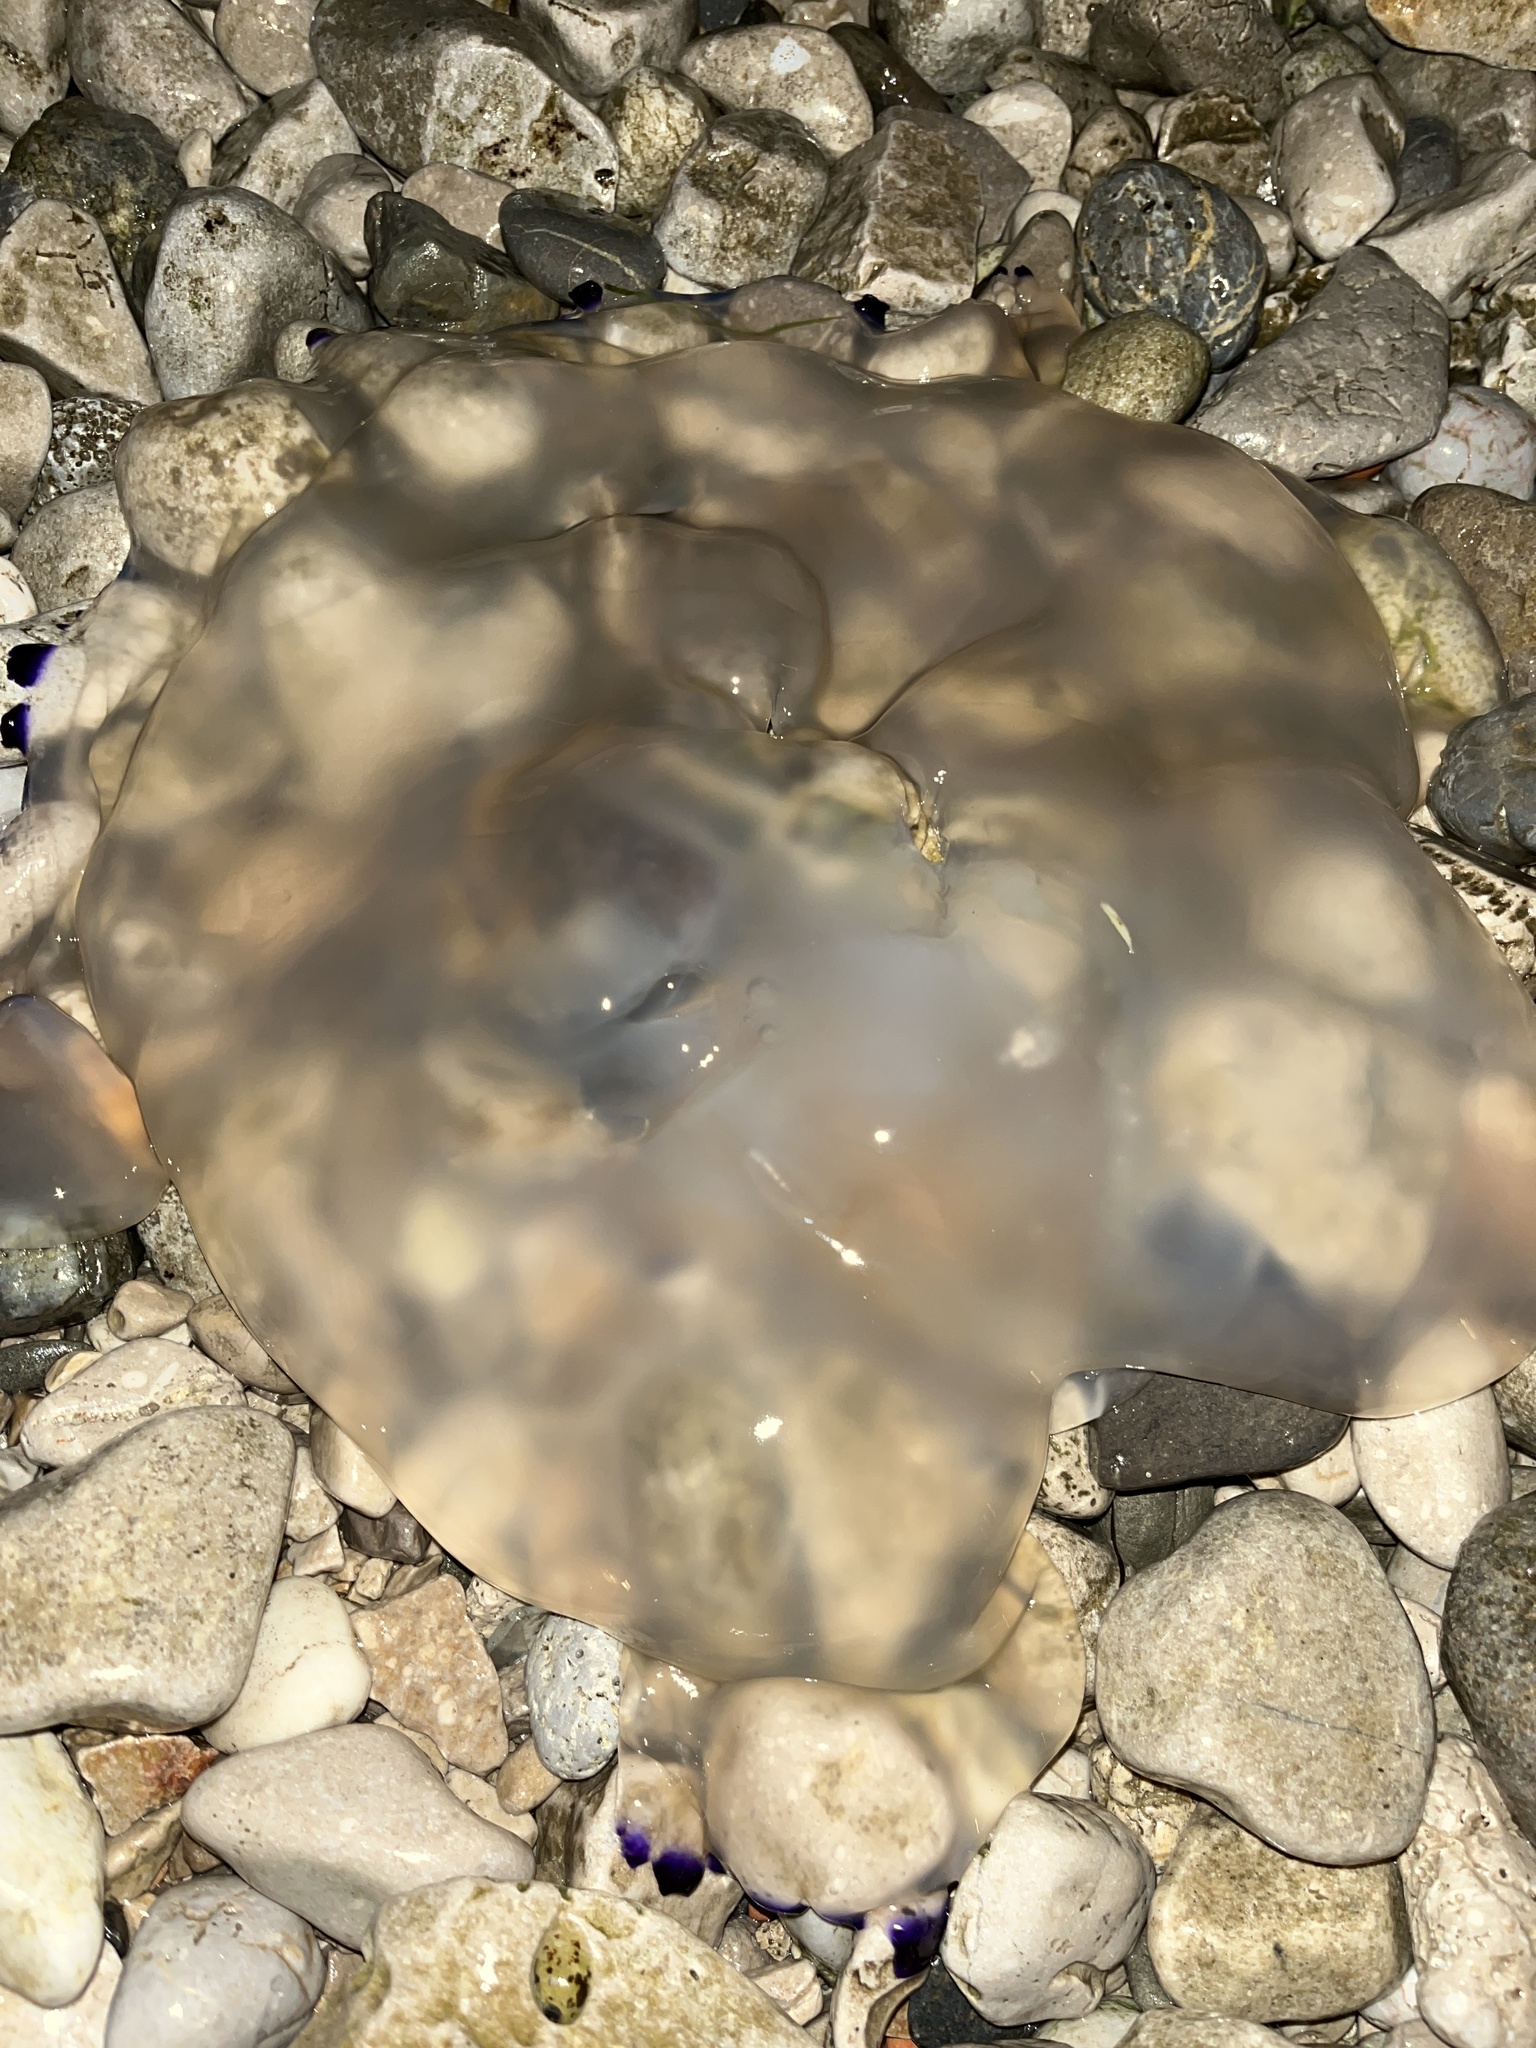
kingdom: Animalia
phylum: Cnidaria
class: Scyphozoa
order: Rhizostomeae
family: Rhizostomatidae
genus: Rhizostoma
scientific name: Rhizostoma pulmo
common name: Barrel jellyfish
